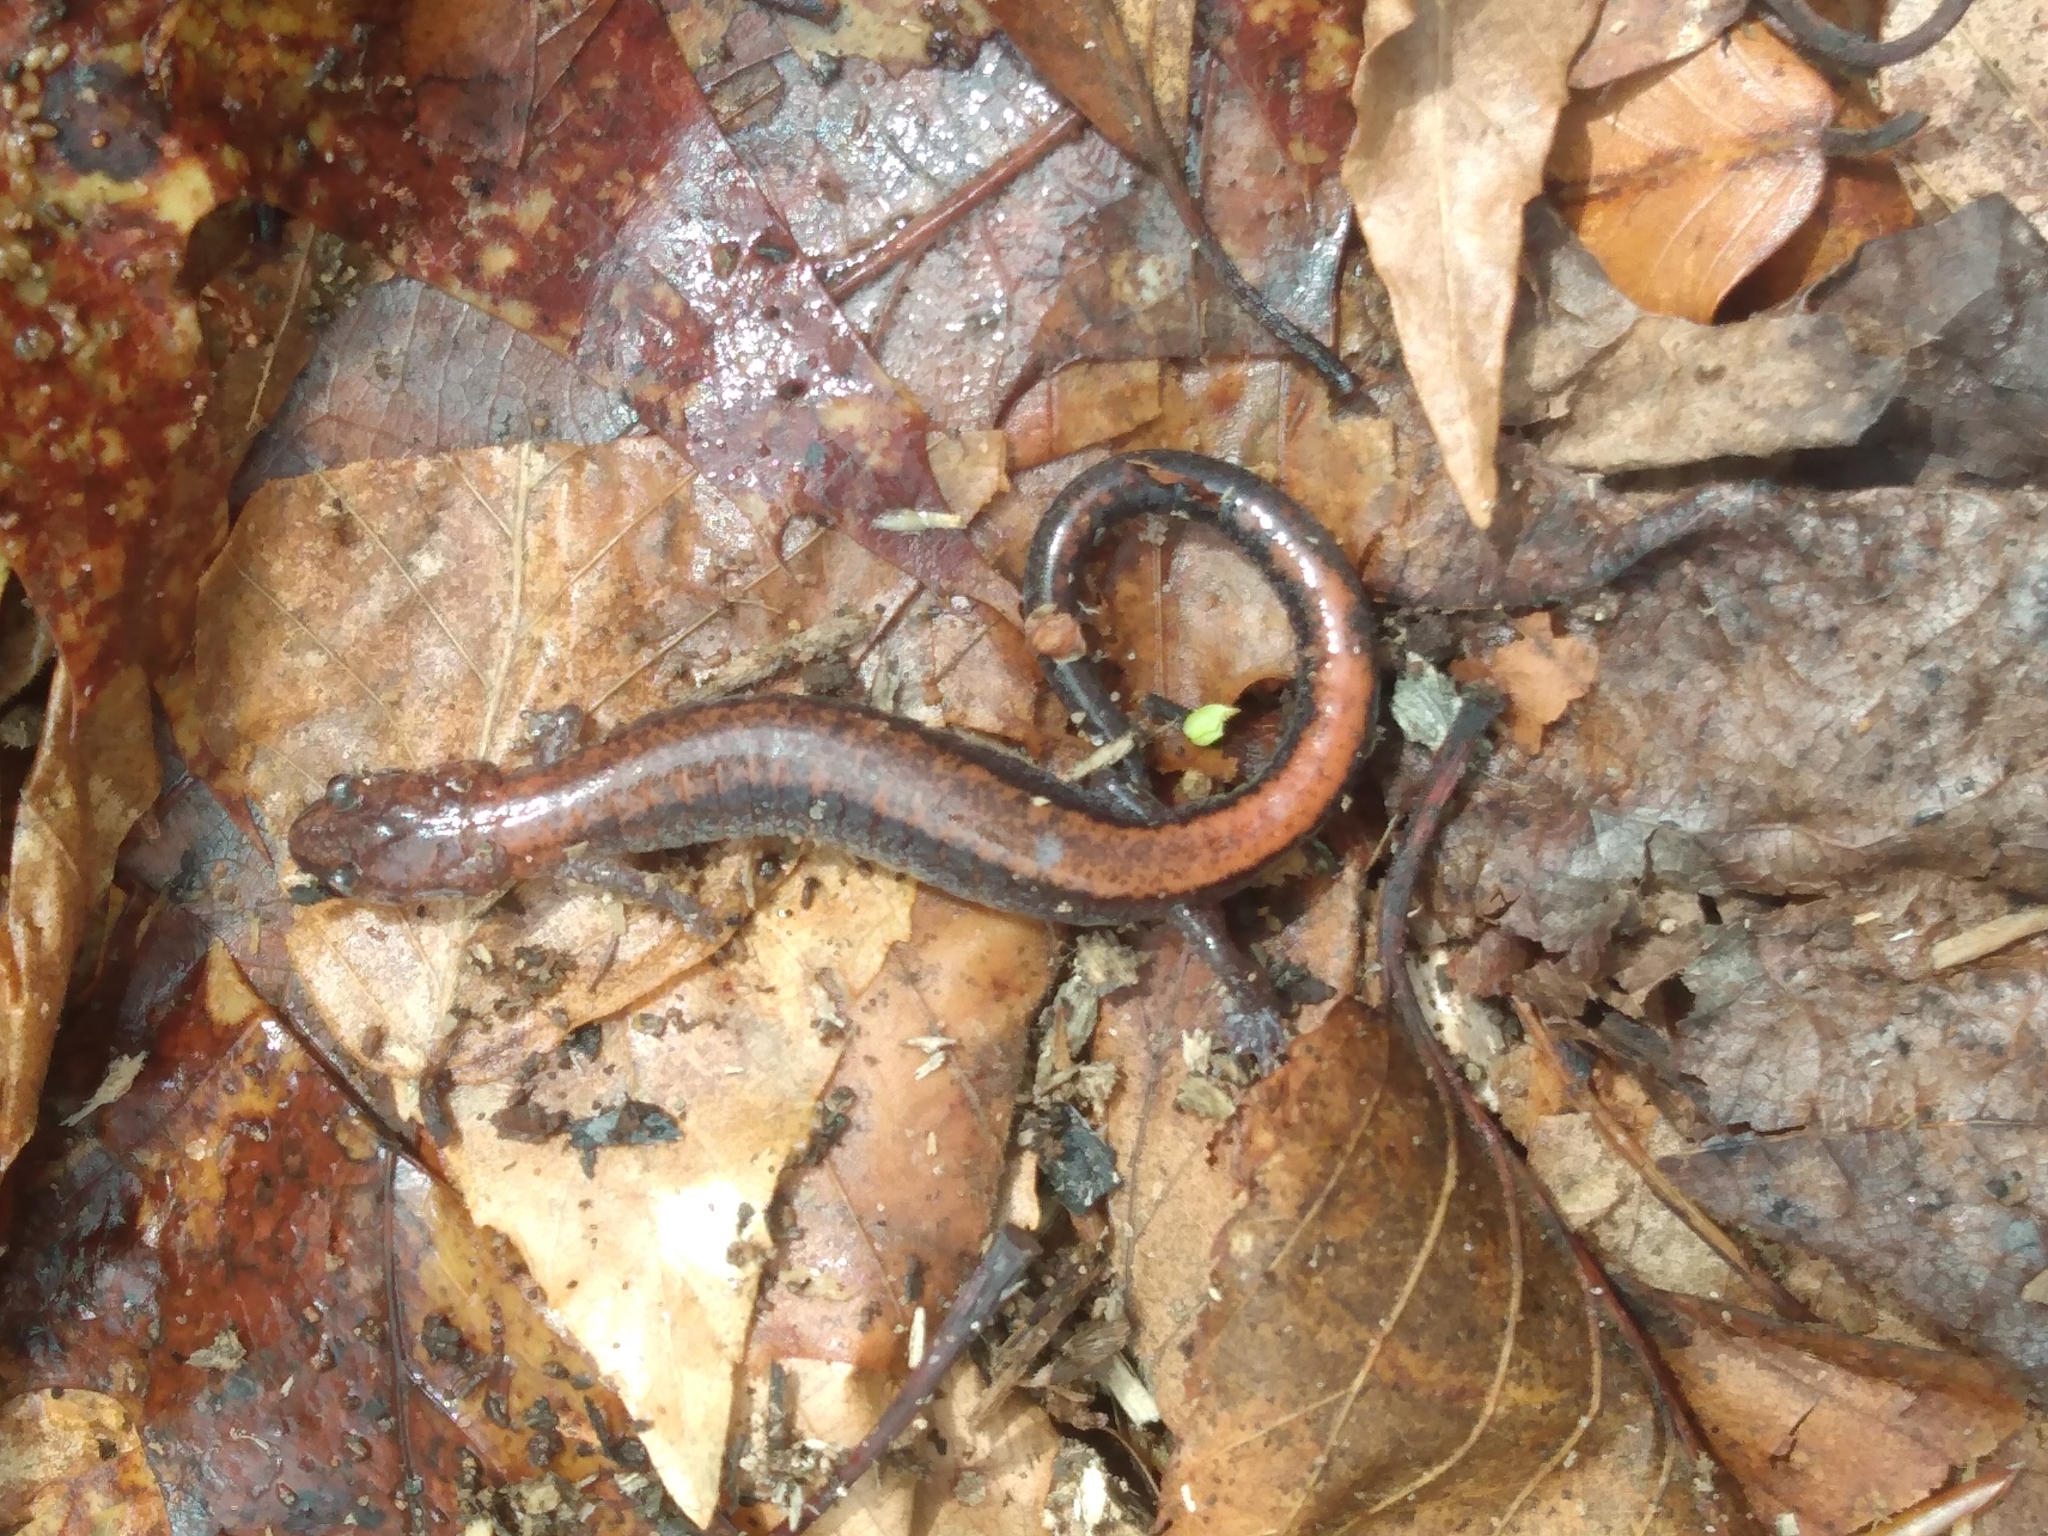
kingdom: Animalia
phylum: Chordata
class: Amphibia
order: Caudata
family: Plethodontidae
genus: Plethodon
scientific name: Plethodon cinereus
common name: Redback salamander
